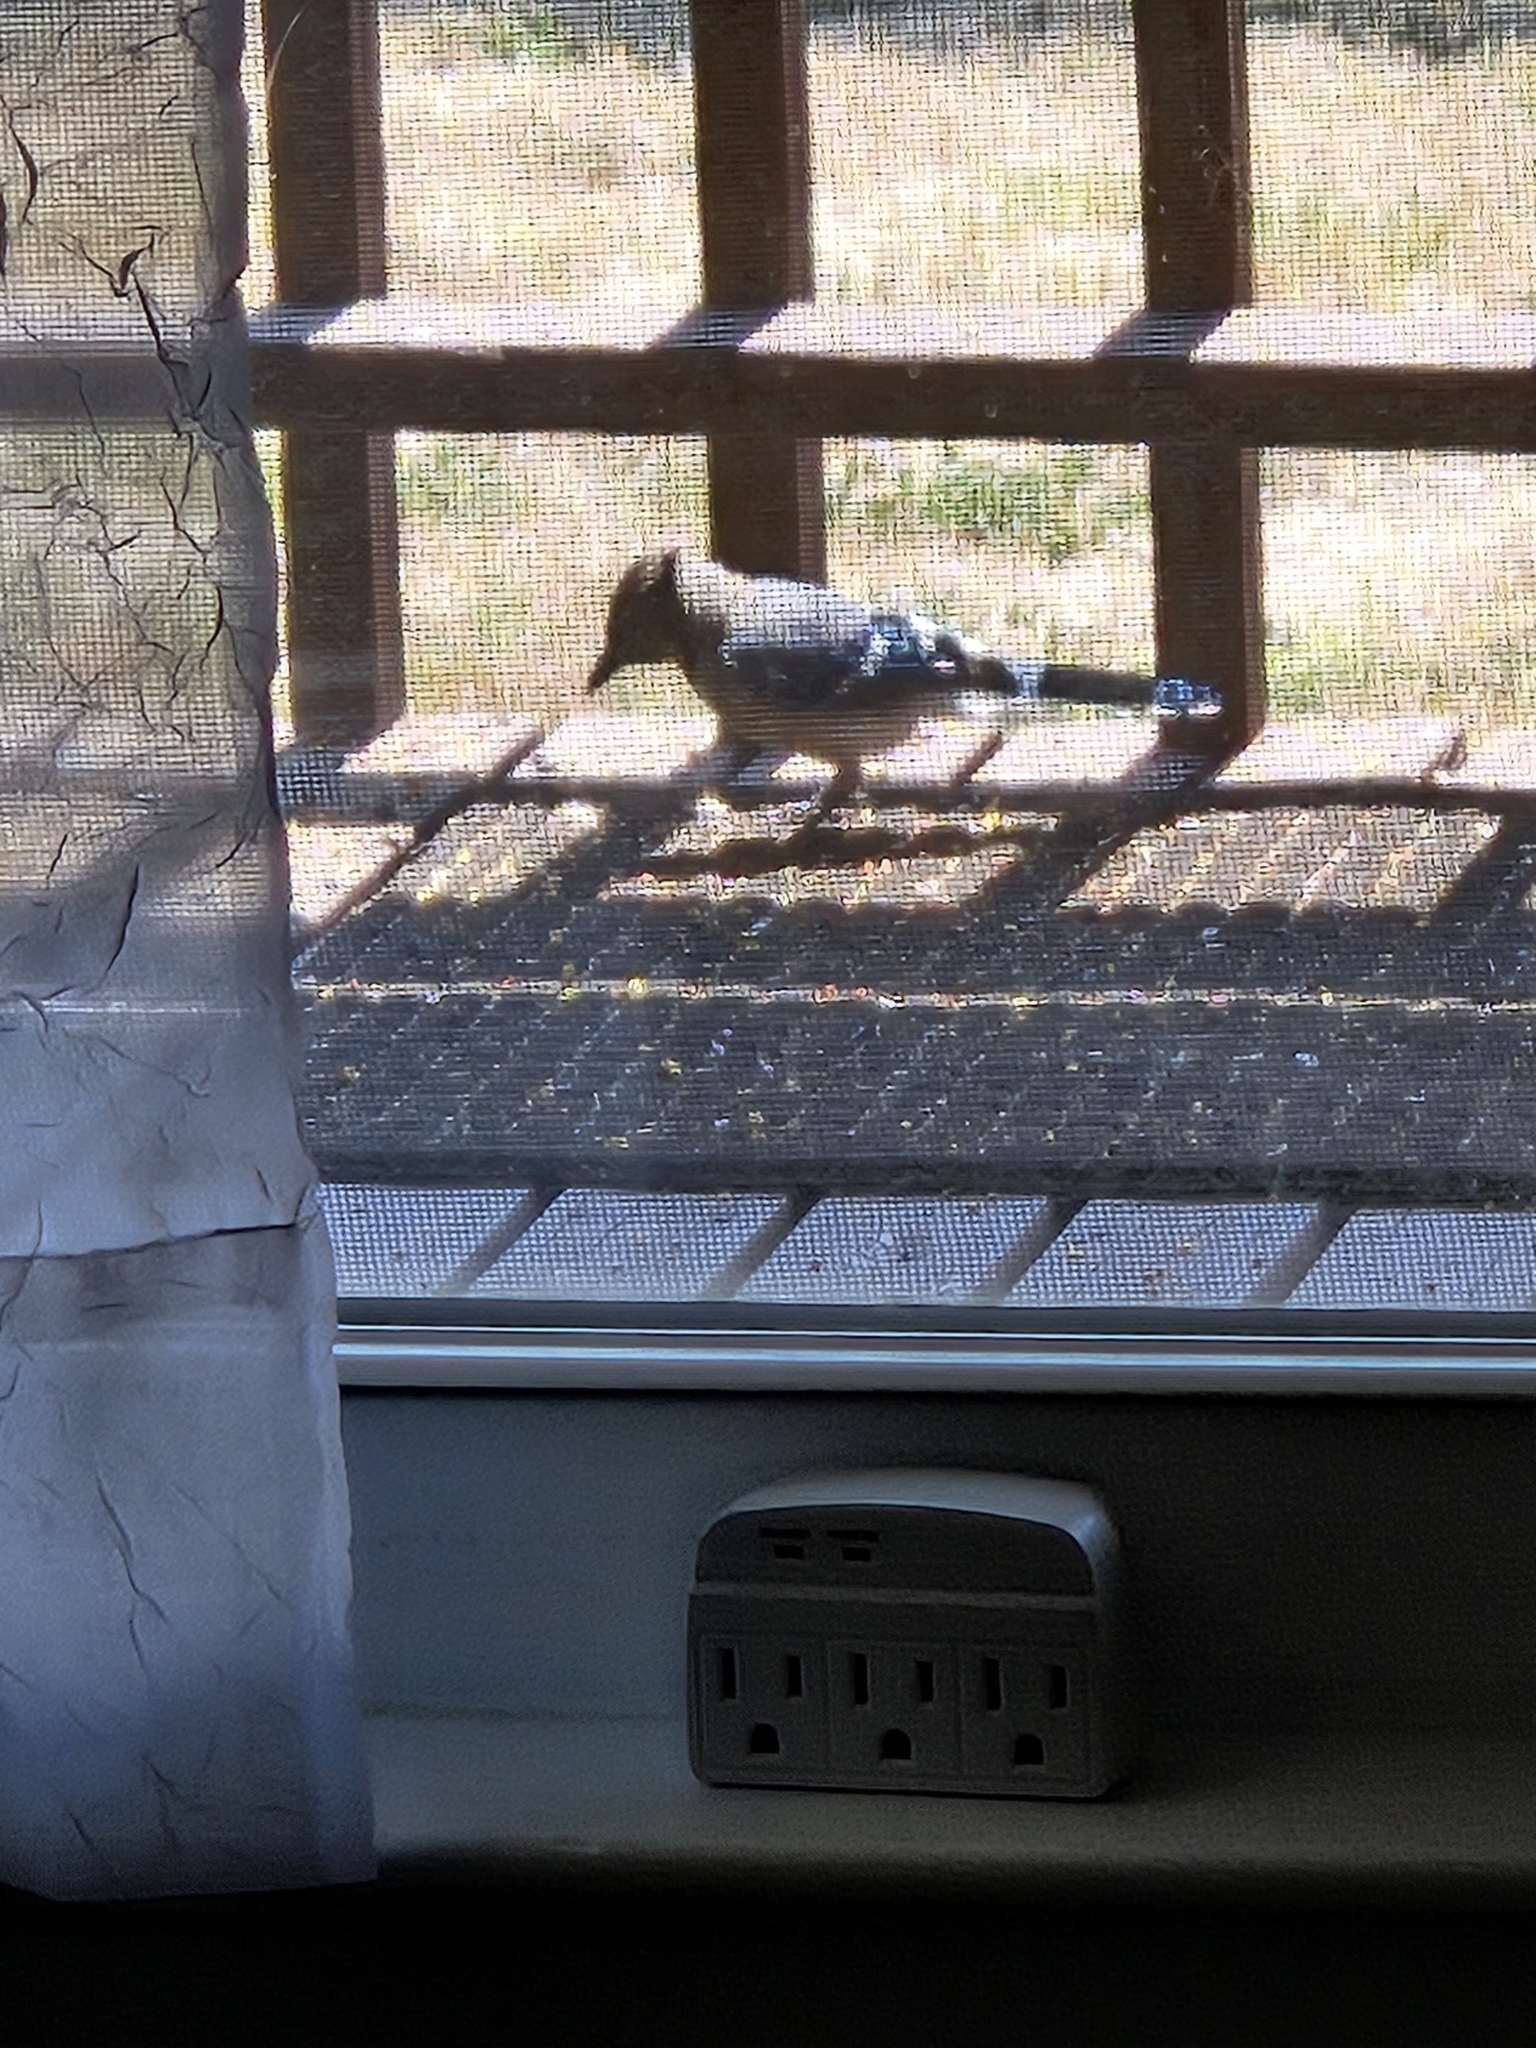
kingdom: Animalia
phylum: Chordata
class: Aves
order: Passeriformes
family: Corvidae
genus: Cyanocitta
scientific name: Cyanocitta cristata
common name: Blue jay
